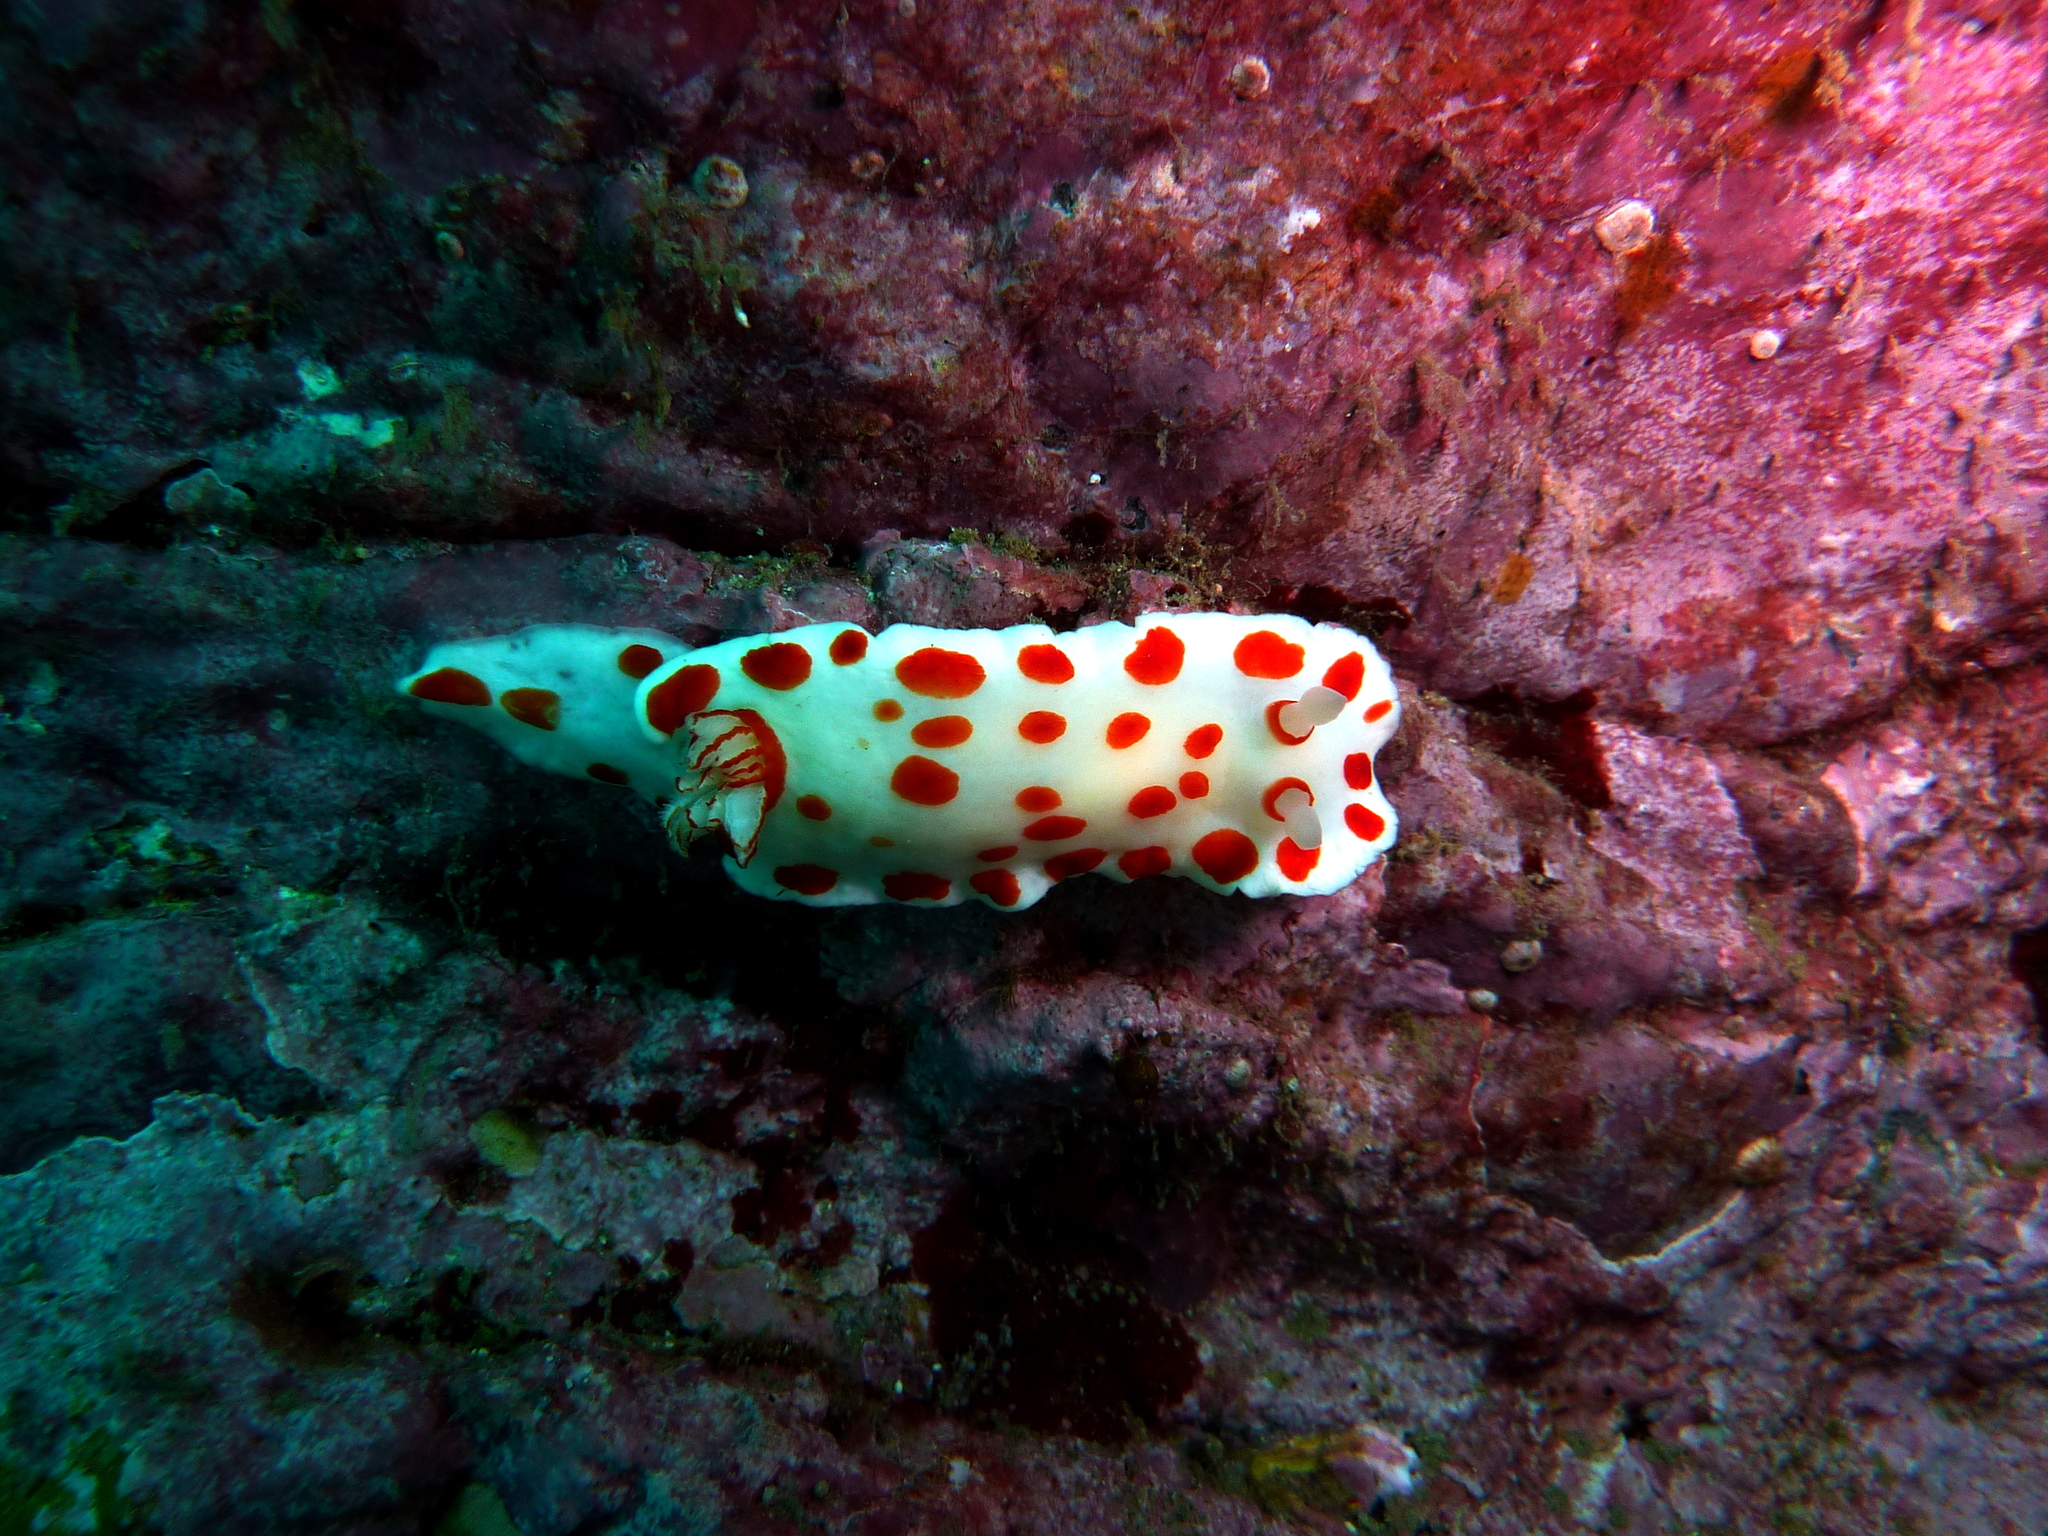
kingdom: Animalia
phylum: Mollusca
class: Gastropoda
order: Nudibranchia
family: Chromodorididae
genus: Goniobranchus
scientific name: Goniobranchus tasmaniensis
